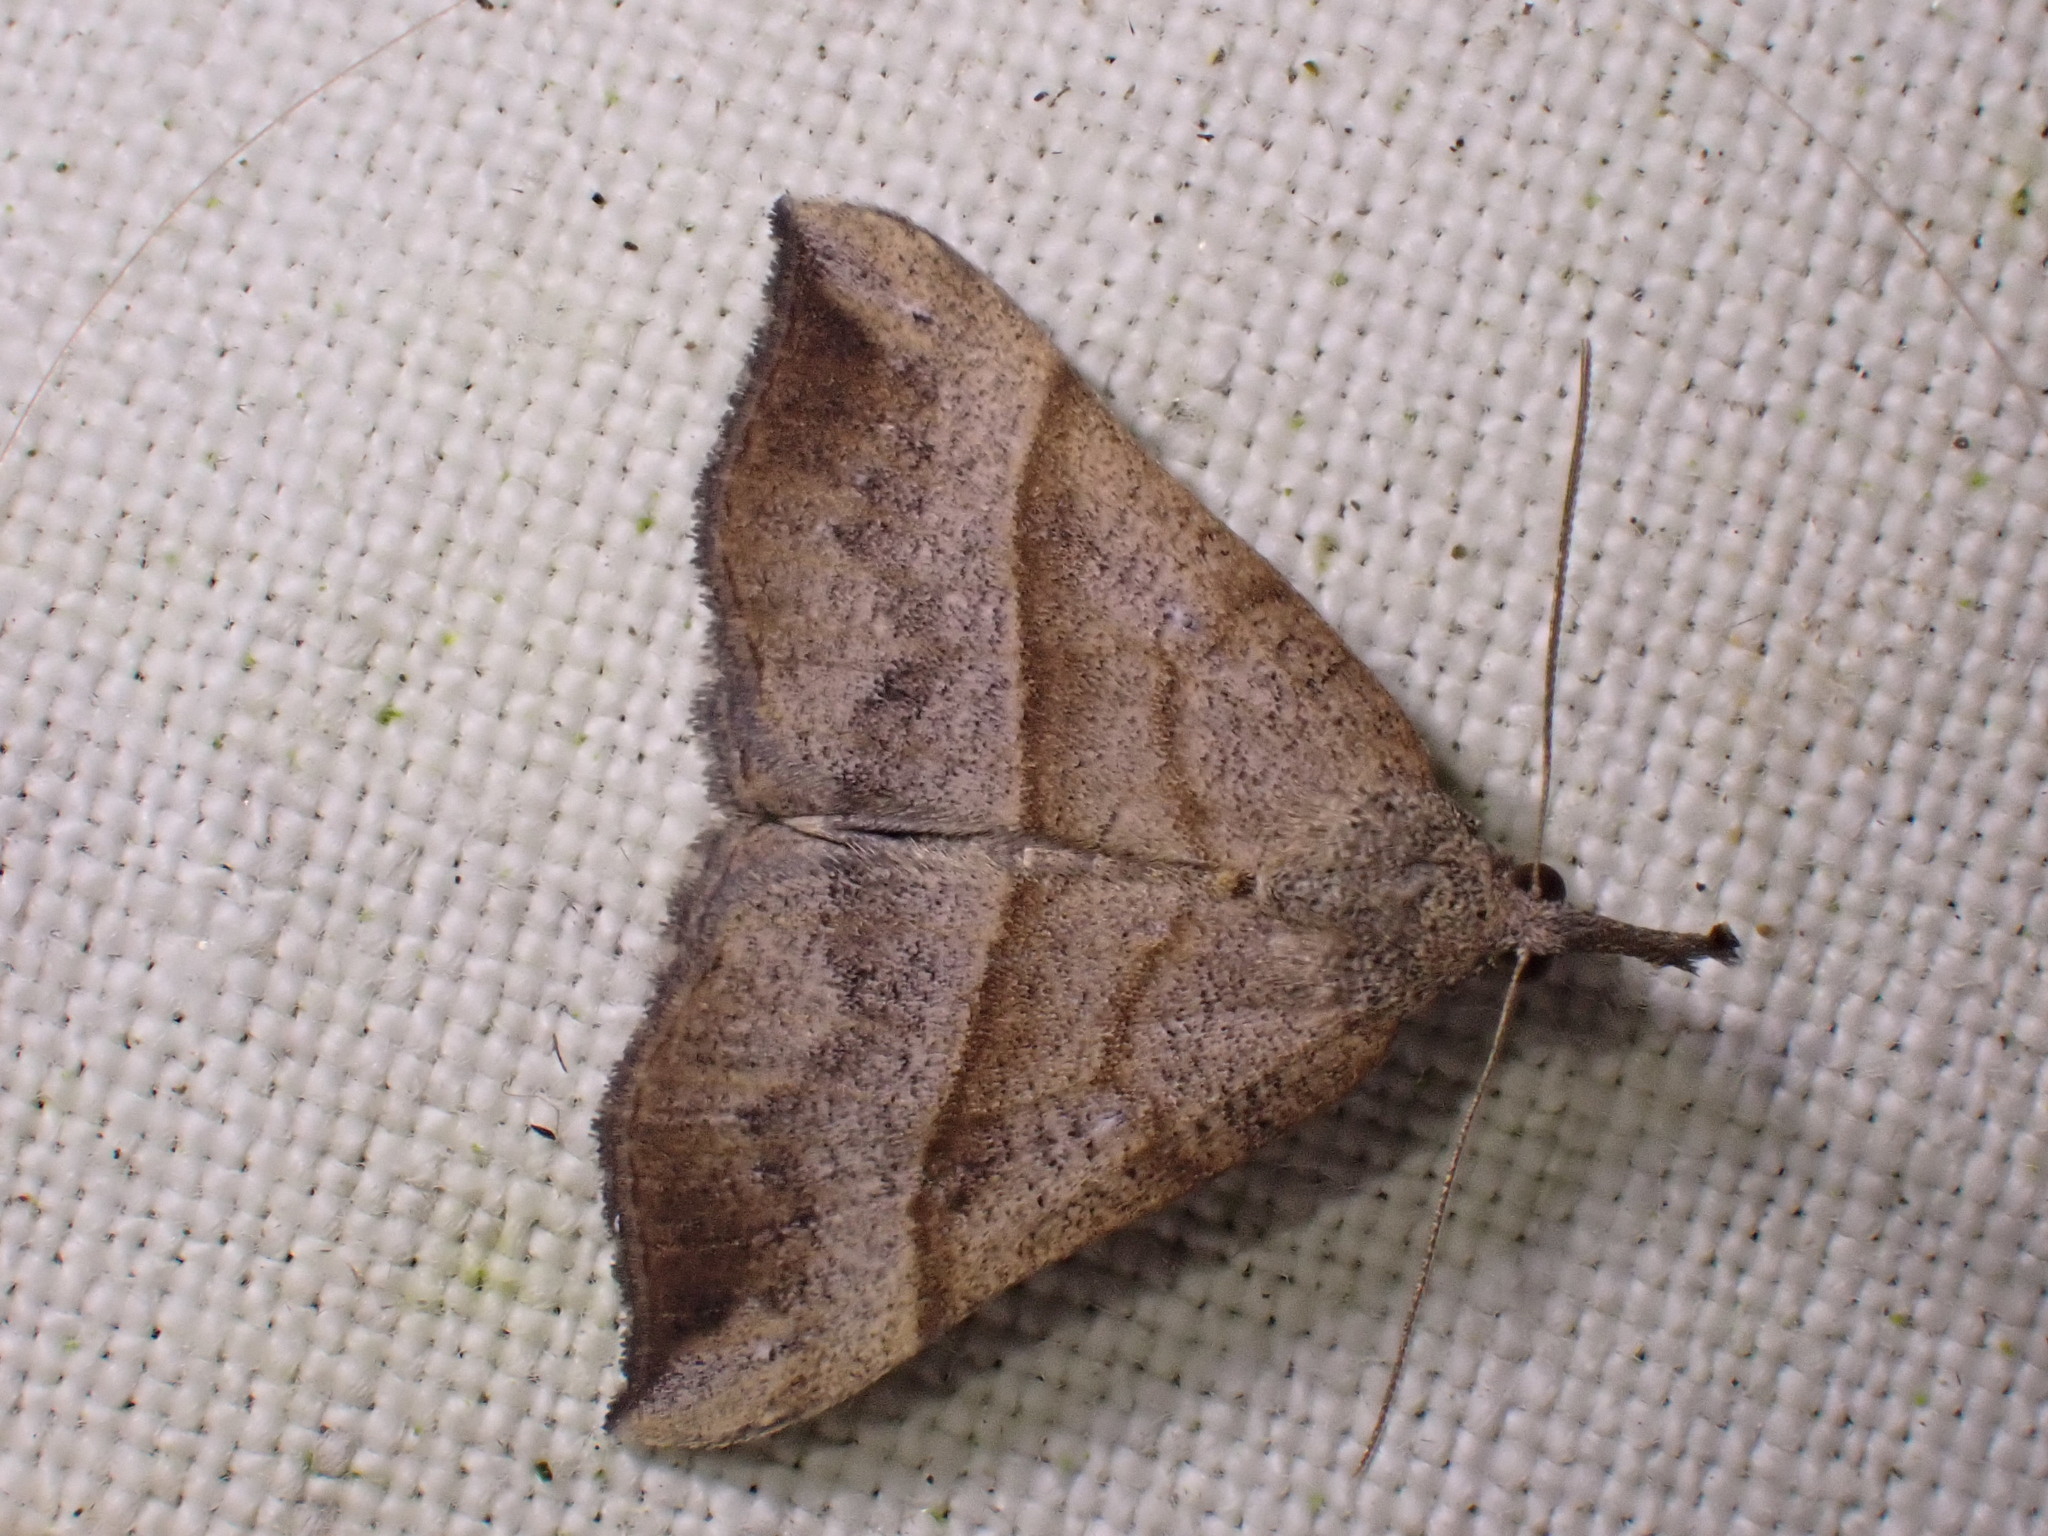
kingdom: Animalia
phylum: Arthropoda
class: Insecta
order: Lepidoptera
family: Erebidae
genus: Hypena
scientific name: Hypena proboscidalis
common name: Snout
